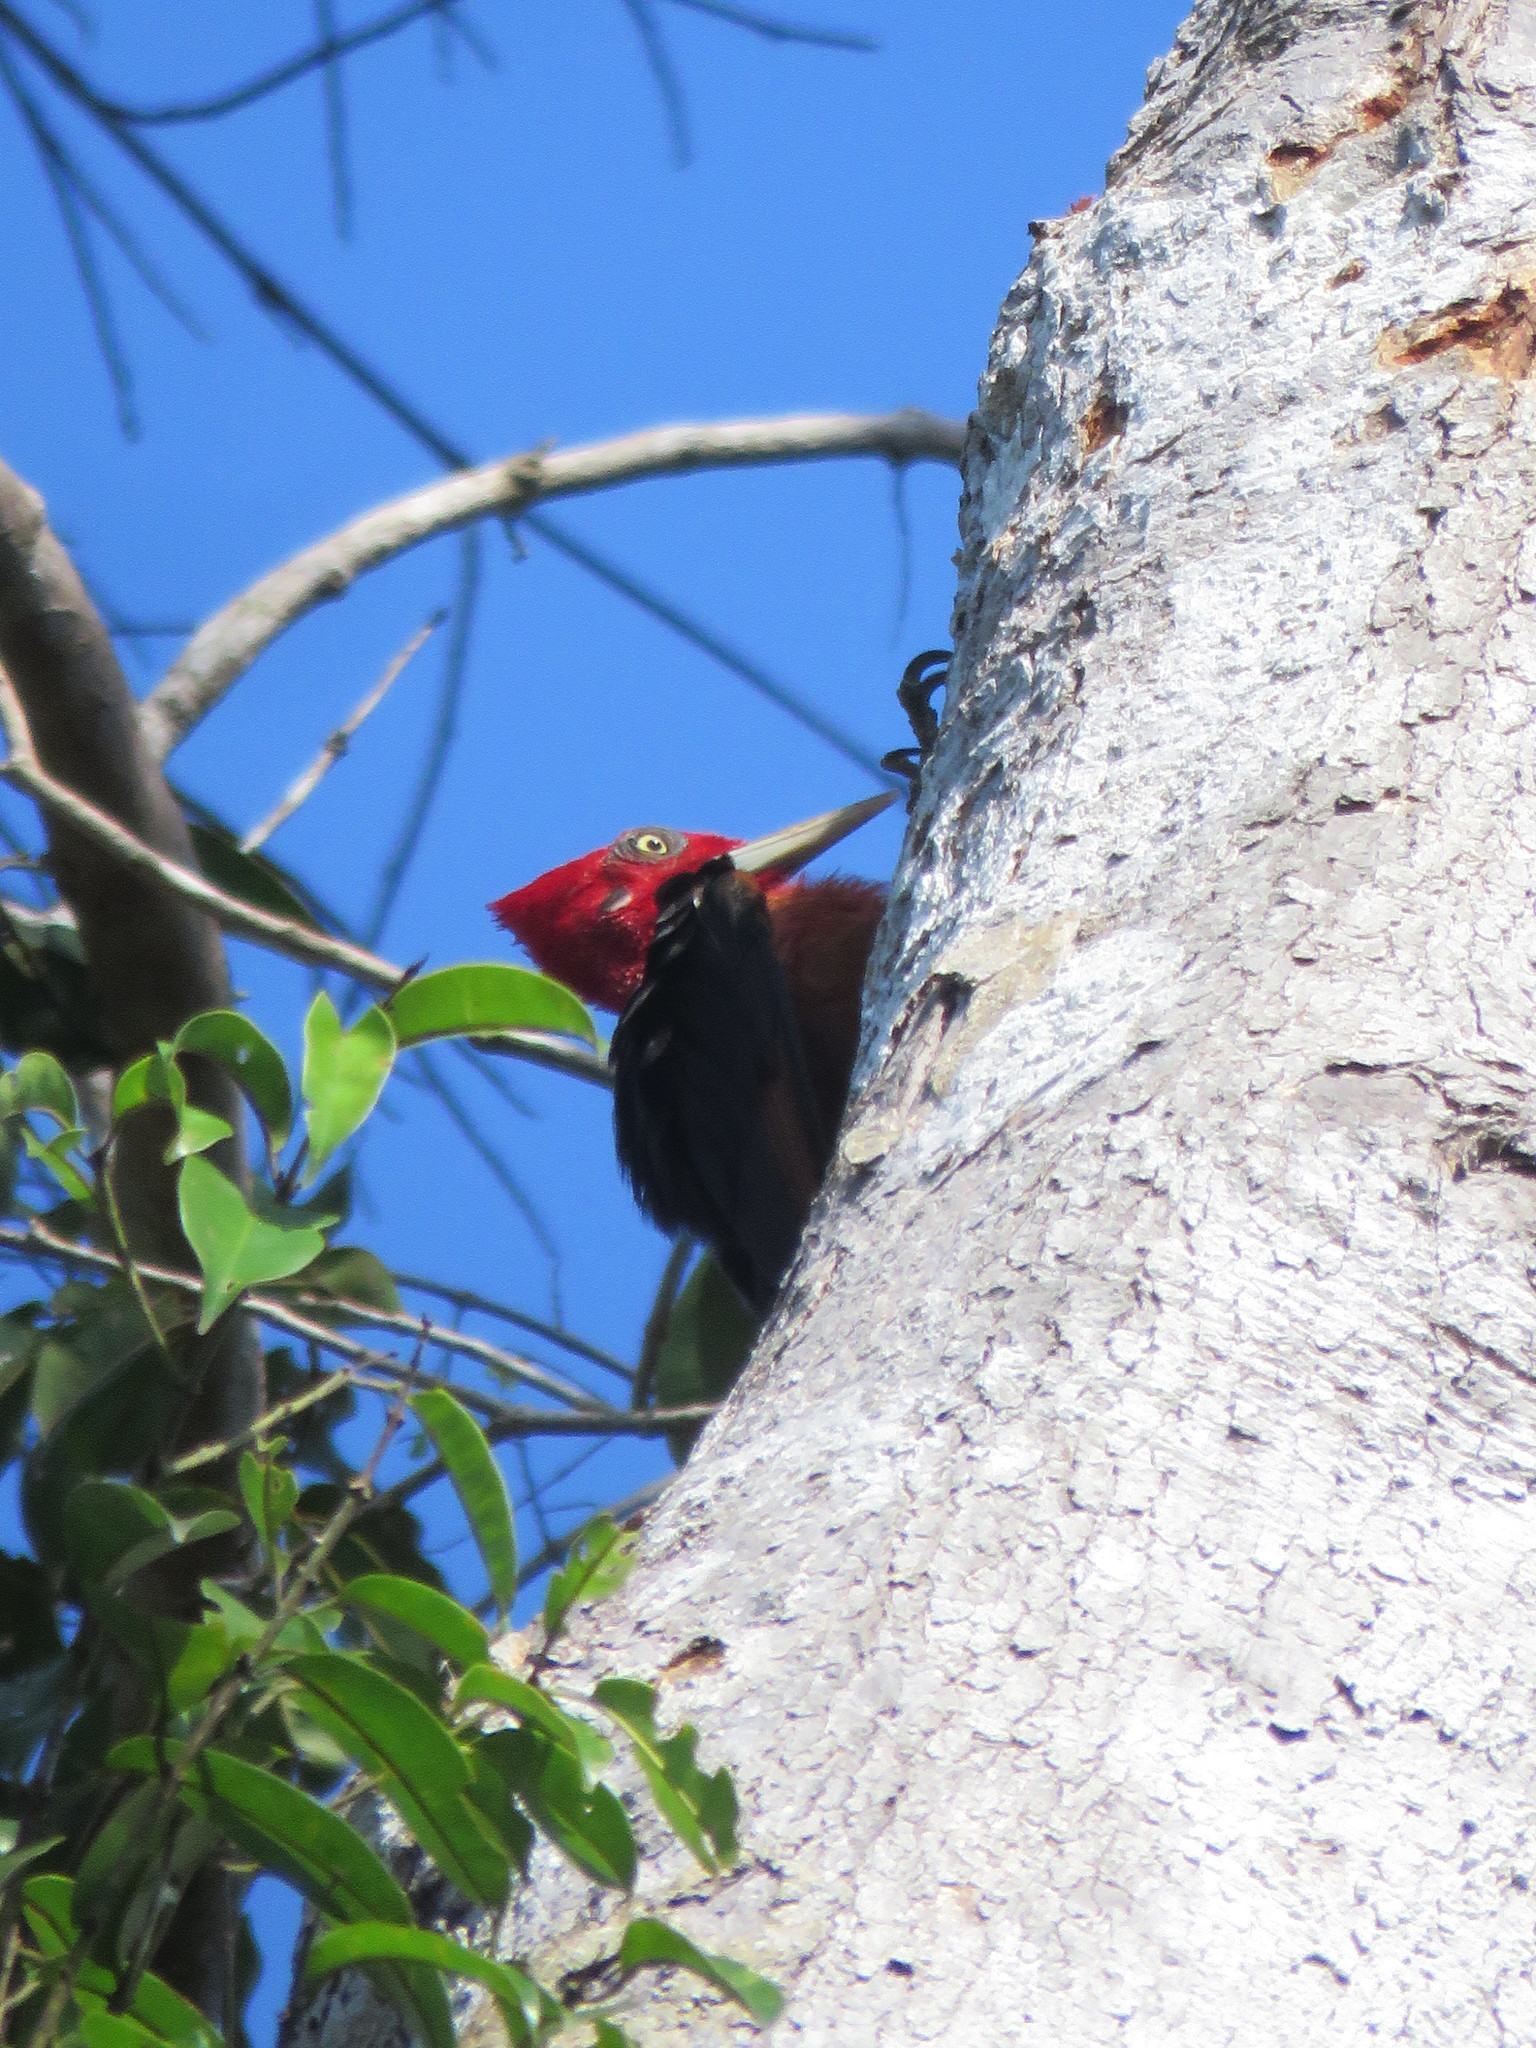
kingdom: Animalia
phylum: Chordata
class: Aves
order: Piciformes
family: Picidae
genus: Campephilus
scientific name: Campephilus rubricollis
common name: Red-necked woodpecker
